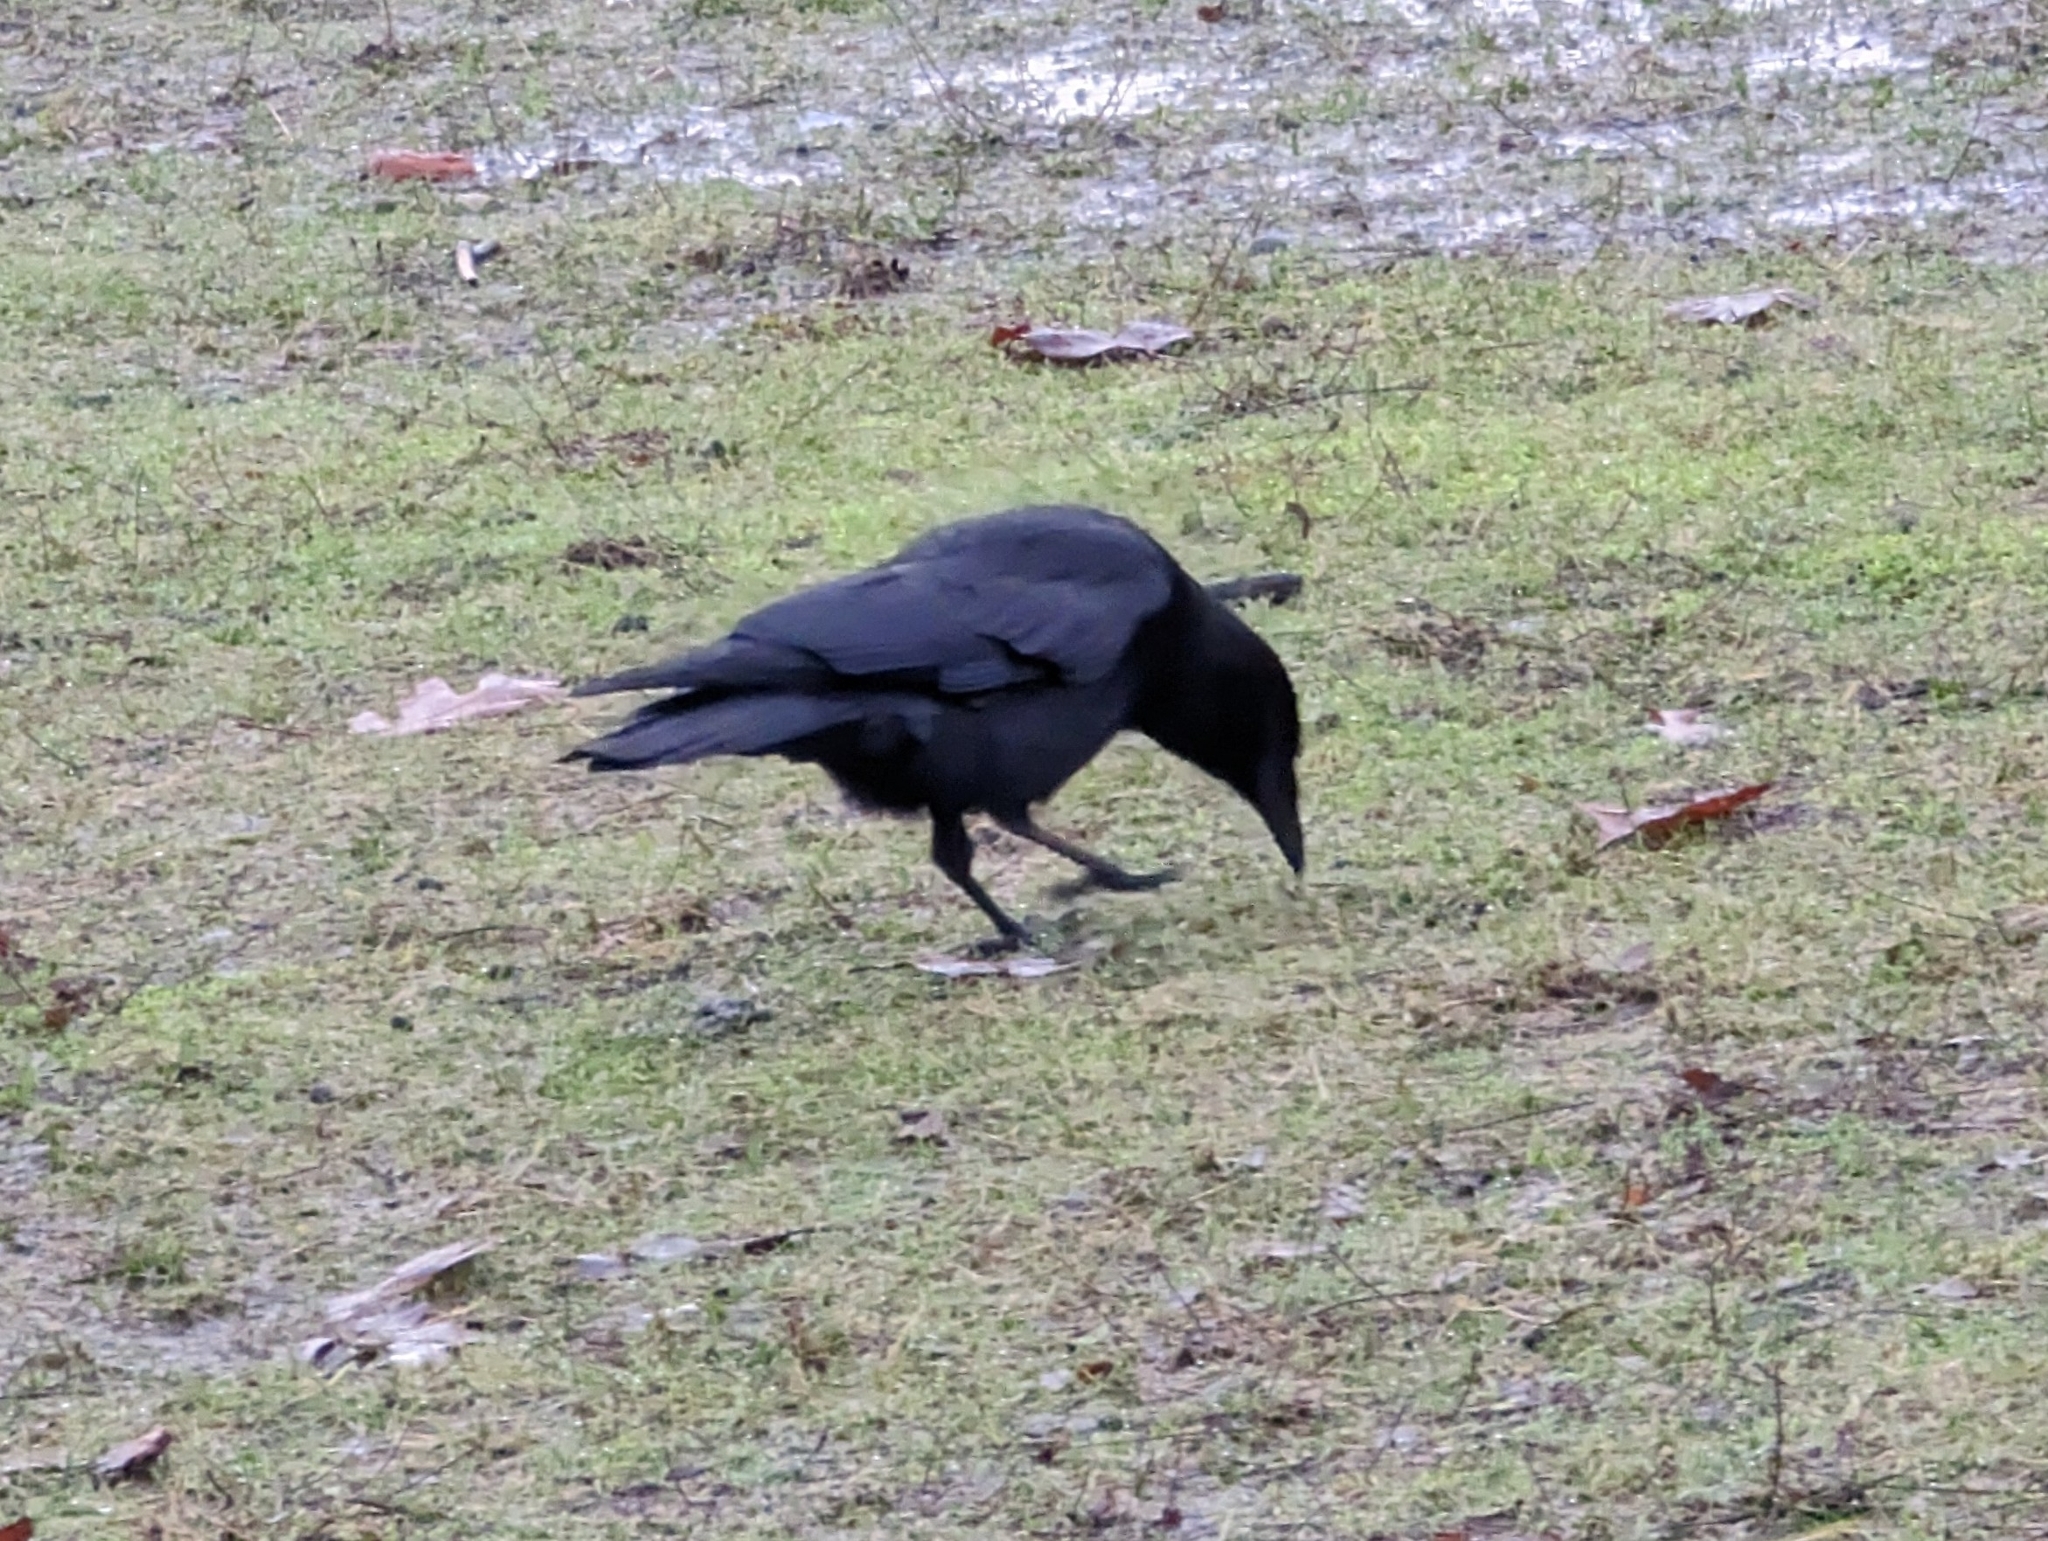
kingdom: Animalia
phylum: Chordata
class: Aves
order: Passeriformes
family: Corvidae
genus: Corvus
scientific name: Corvus brachyrhynchos
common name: American crow
